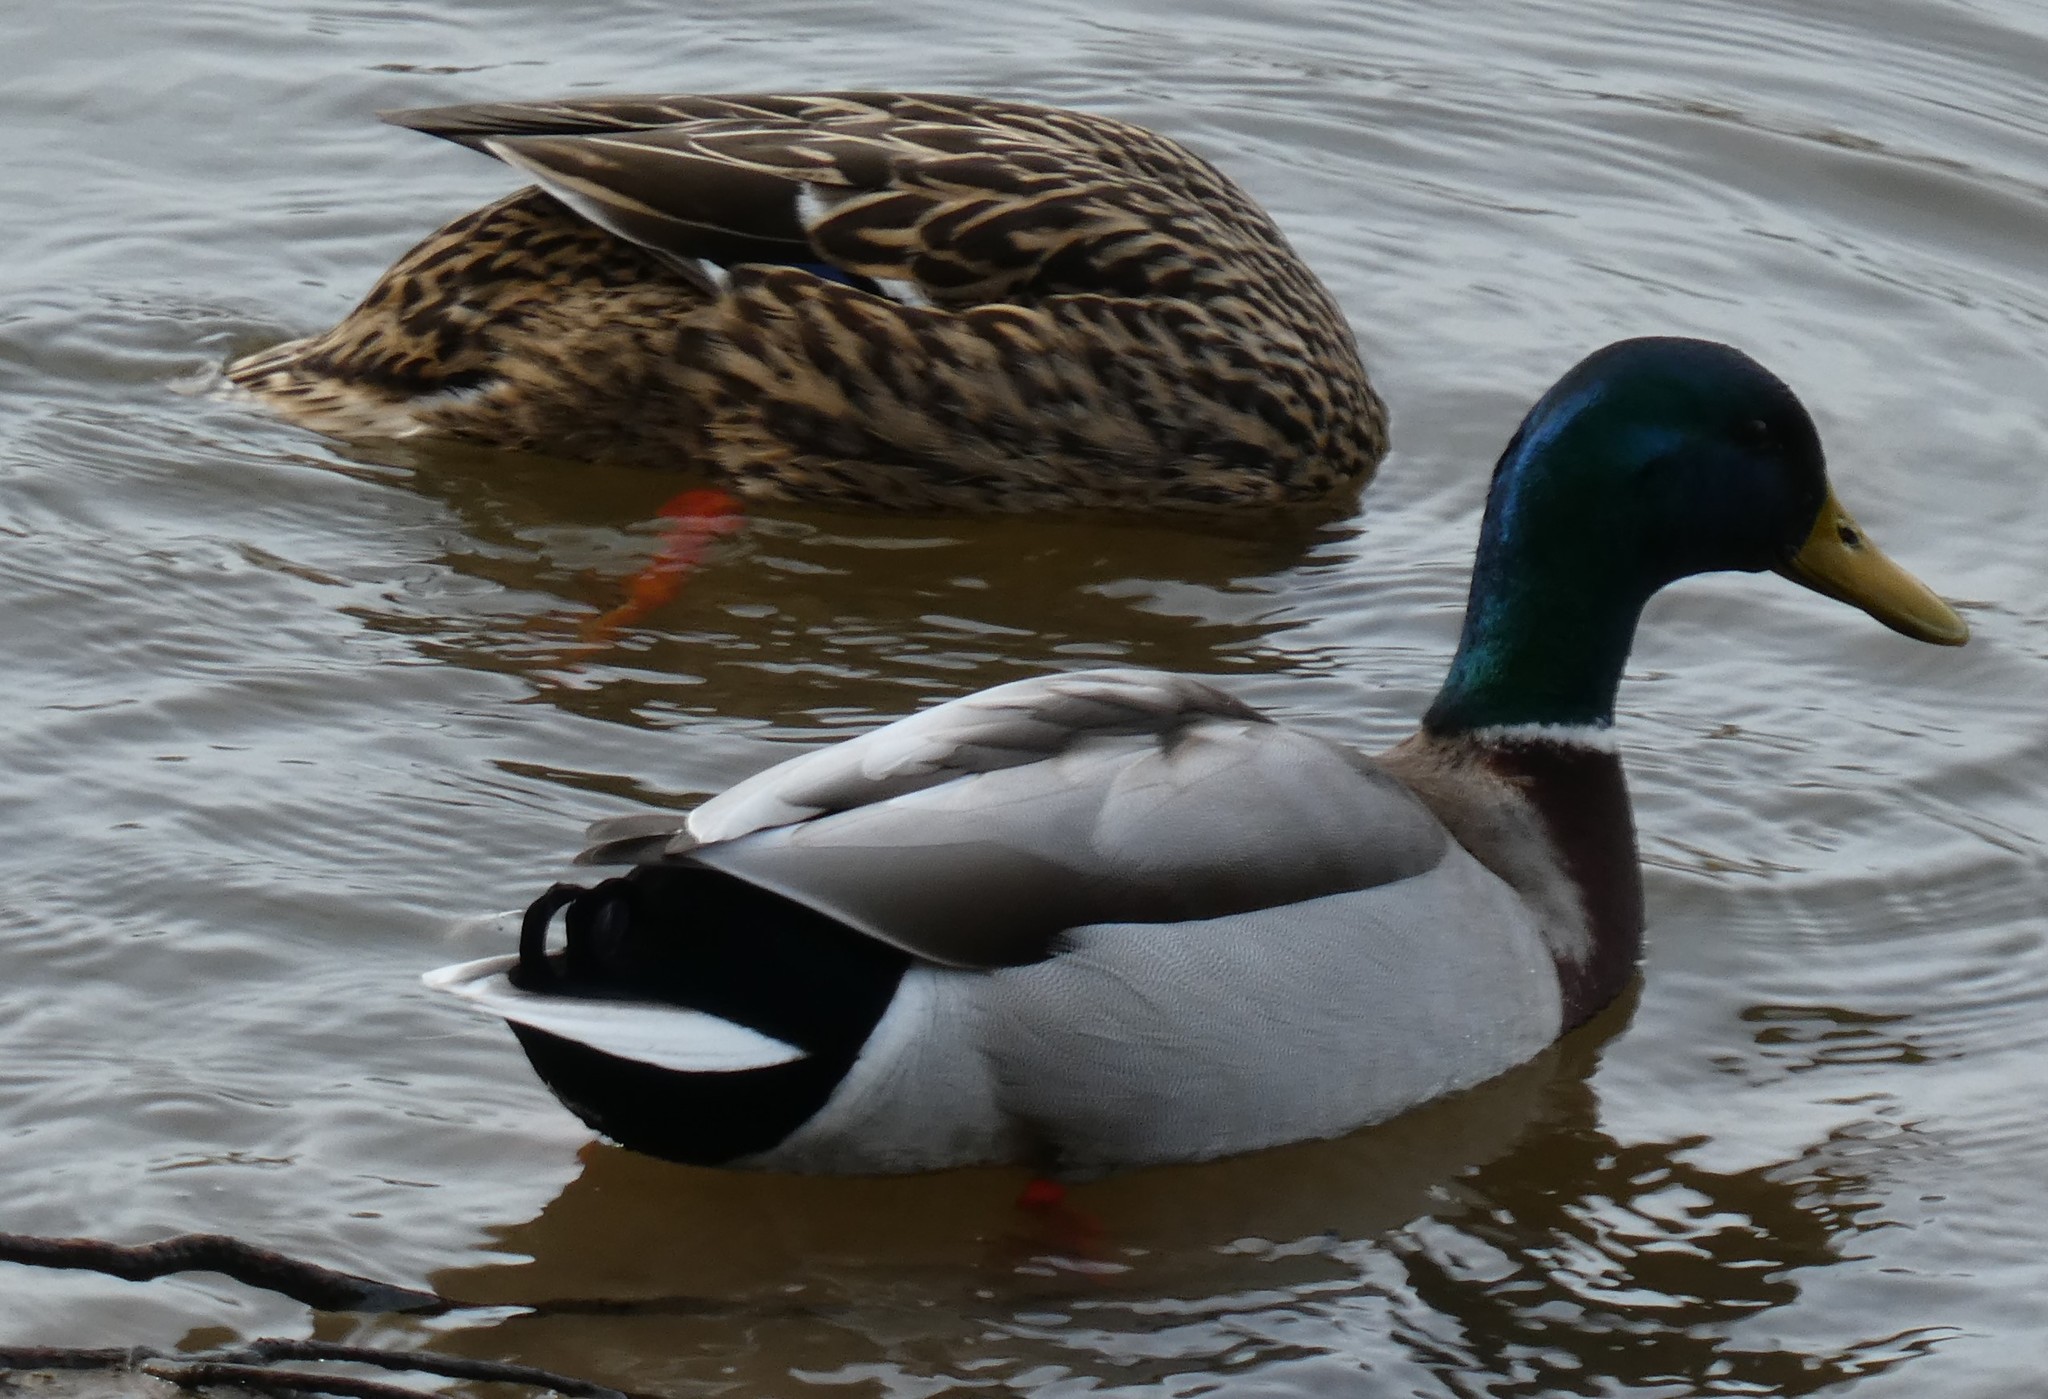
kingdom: Animalia
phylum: Chordata
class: Aves
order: Anseriformes
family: Anatidae
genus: Anas
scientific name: Anas platyrhynchos
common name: Mallard
